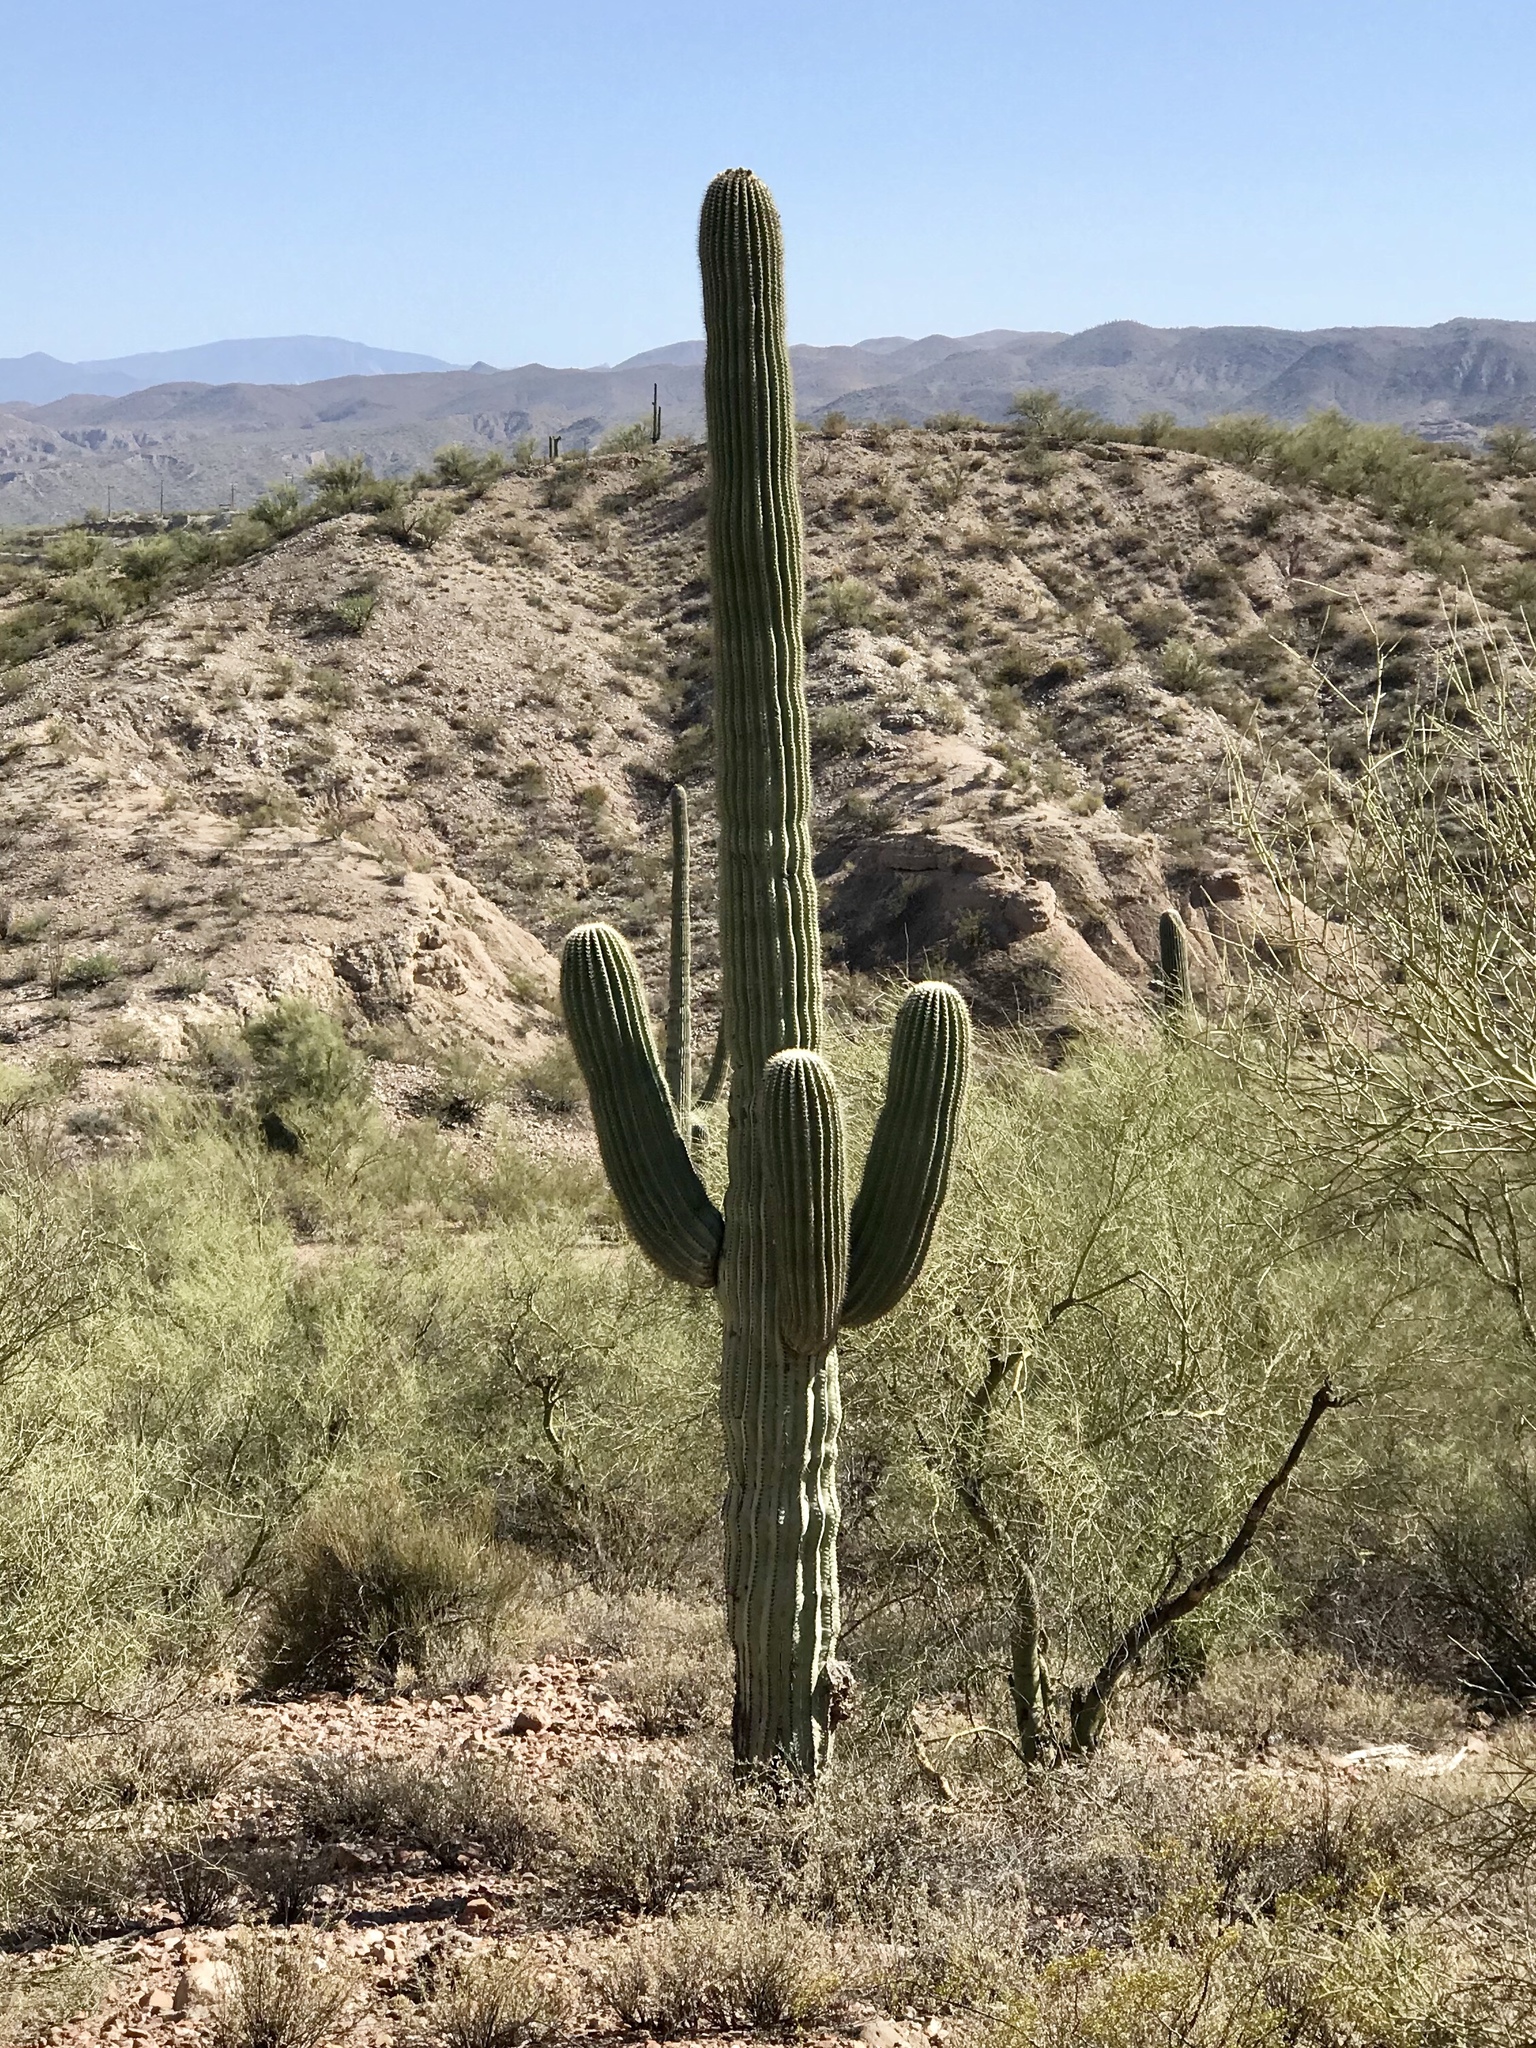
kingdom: Plantae
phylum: Tracheophyta
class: Magnoliopsida
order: Caryophyllales
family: Cactaceae
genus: Carnegiea
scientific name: Carnegiea gigantea
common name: Saguaro
